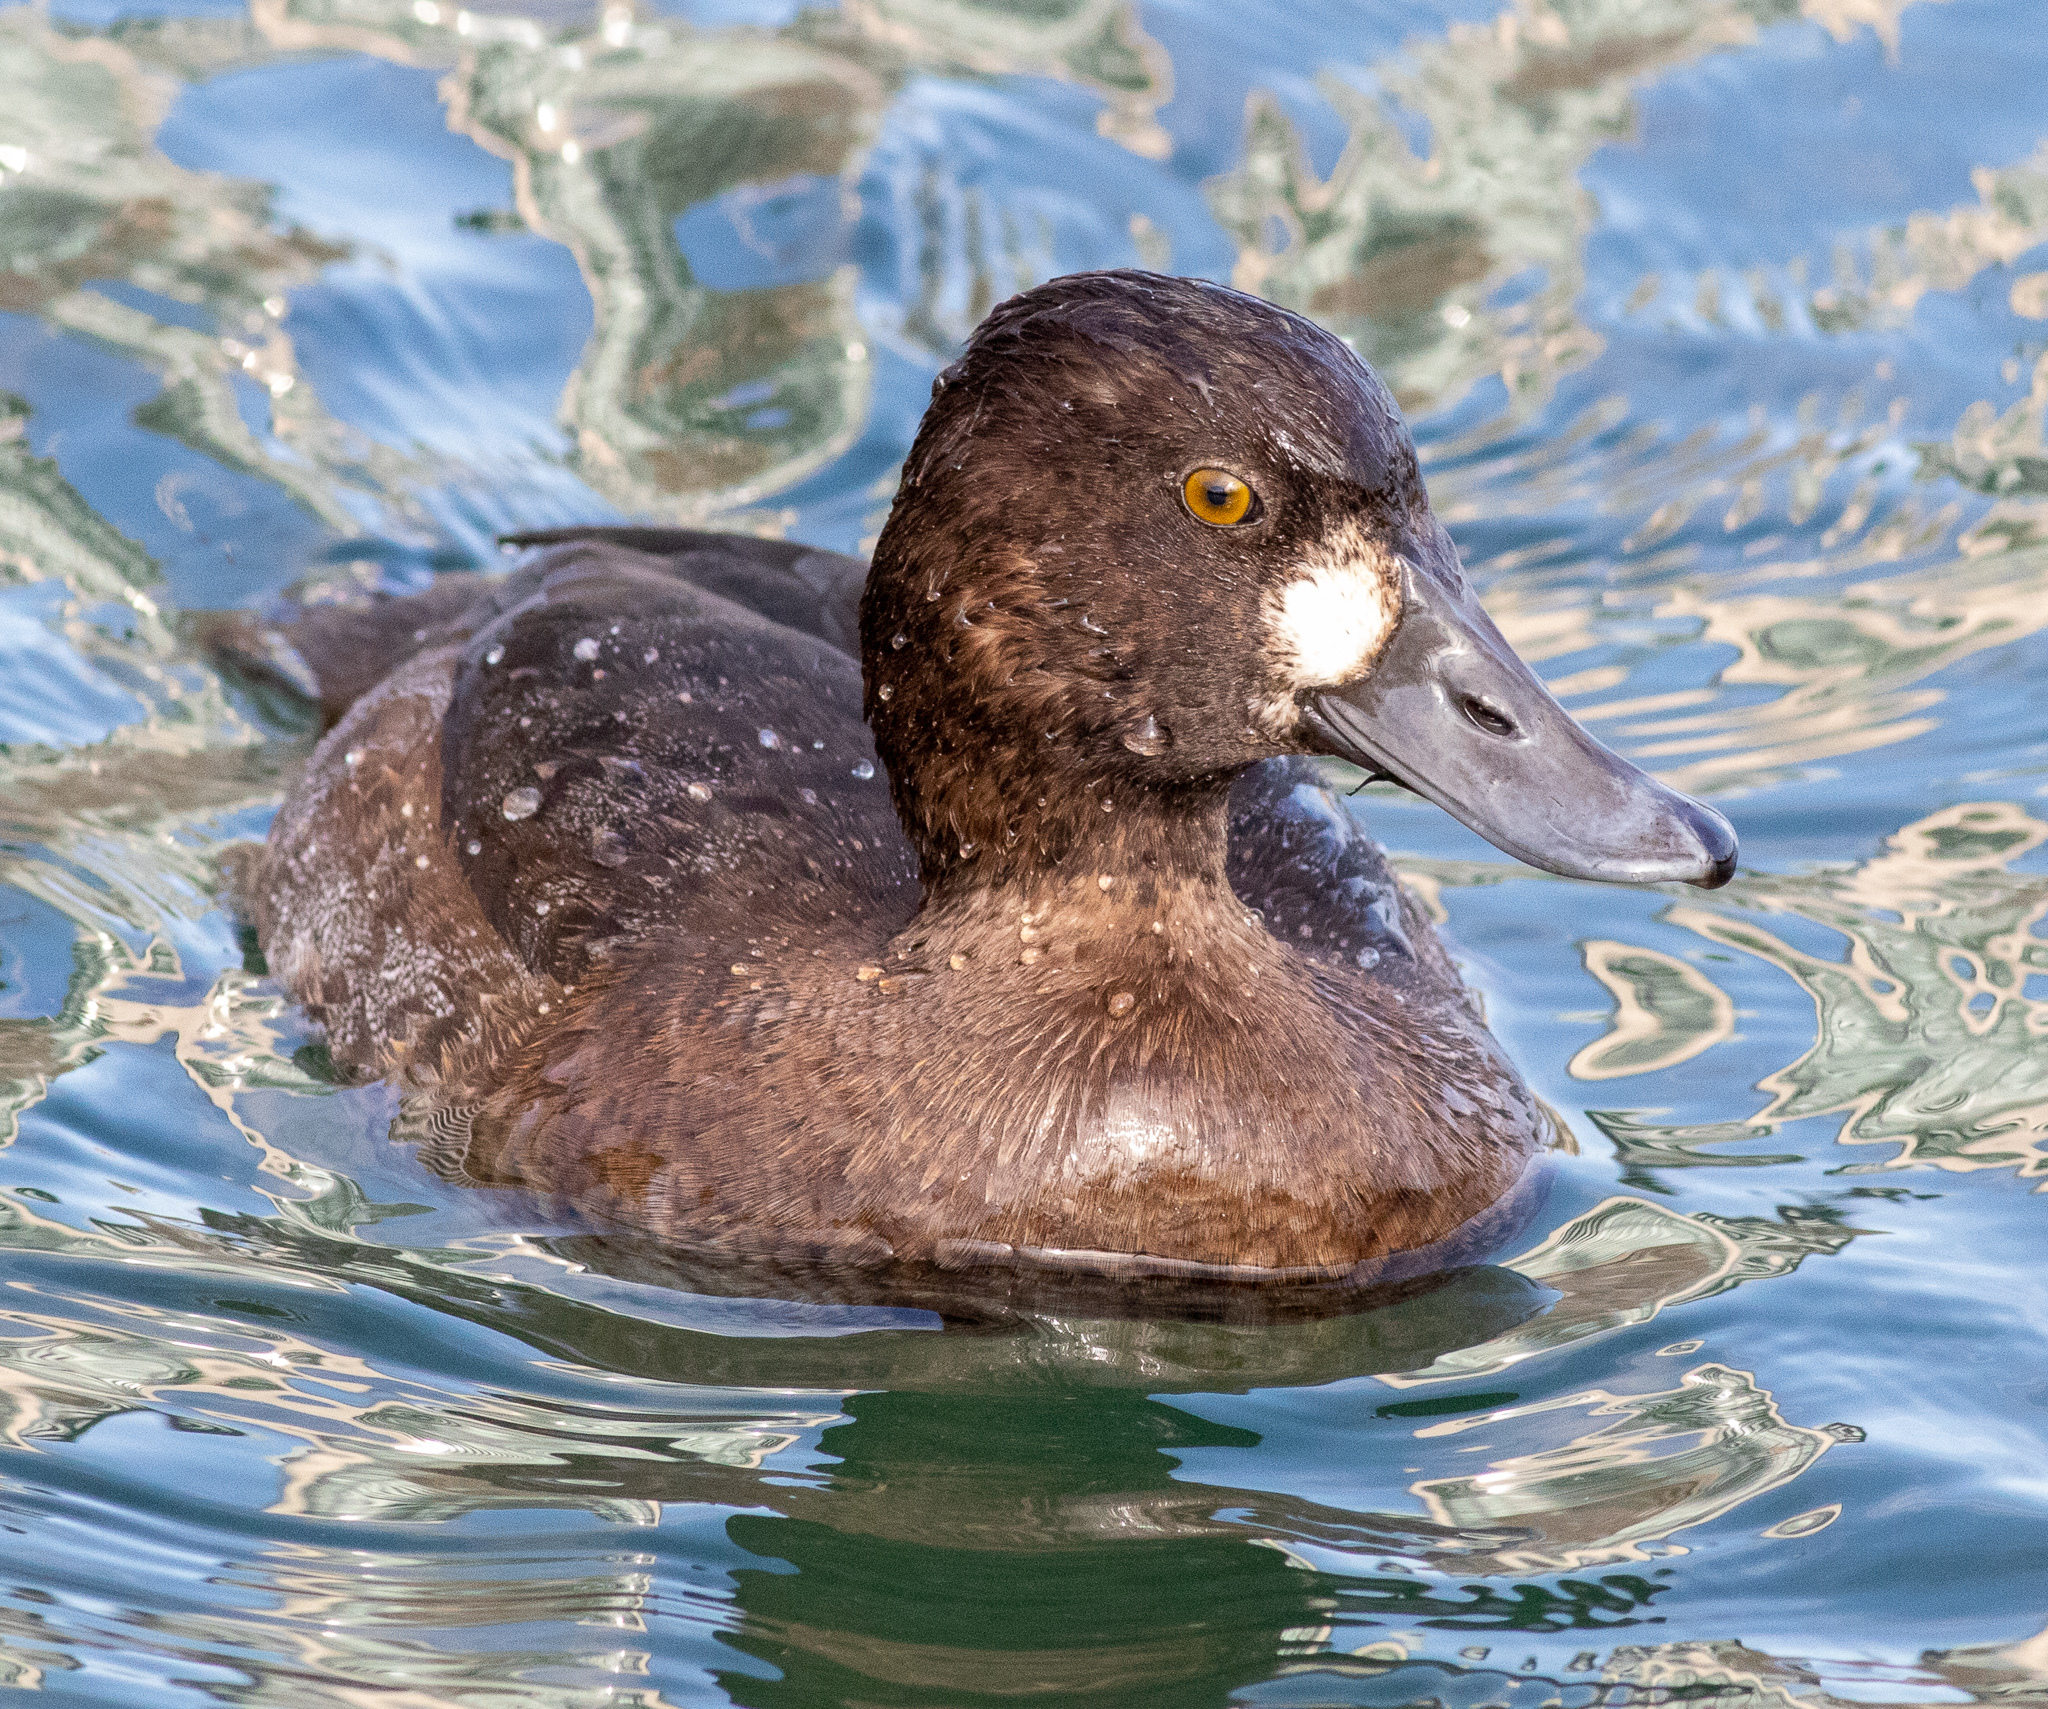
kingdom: Animalia
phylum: Chordata
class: Aves
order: Anseriformes
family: Anatidae
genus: Aythya
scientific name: Aythya affinis
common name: Lesser scaup
